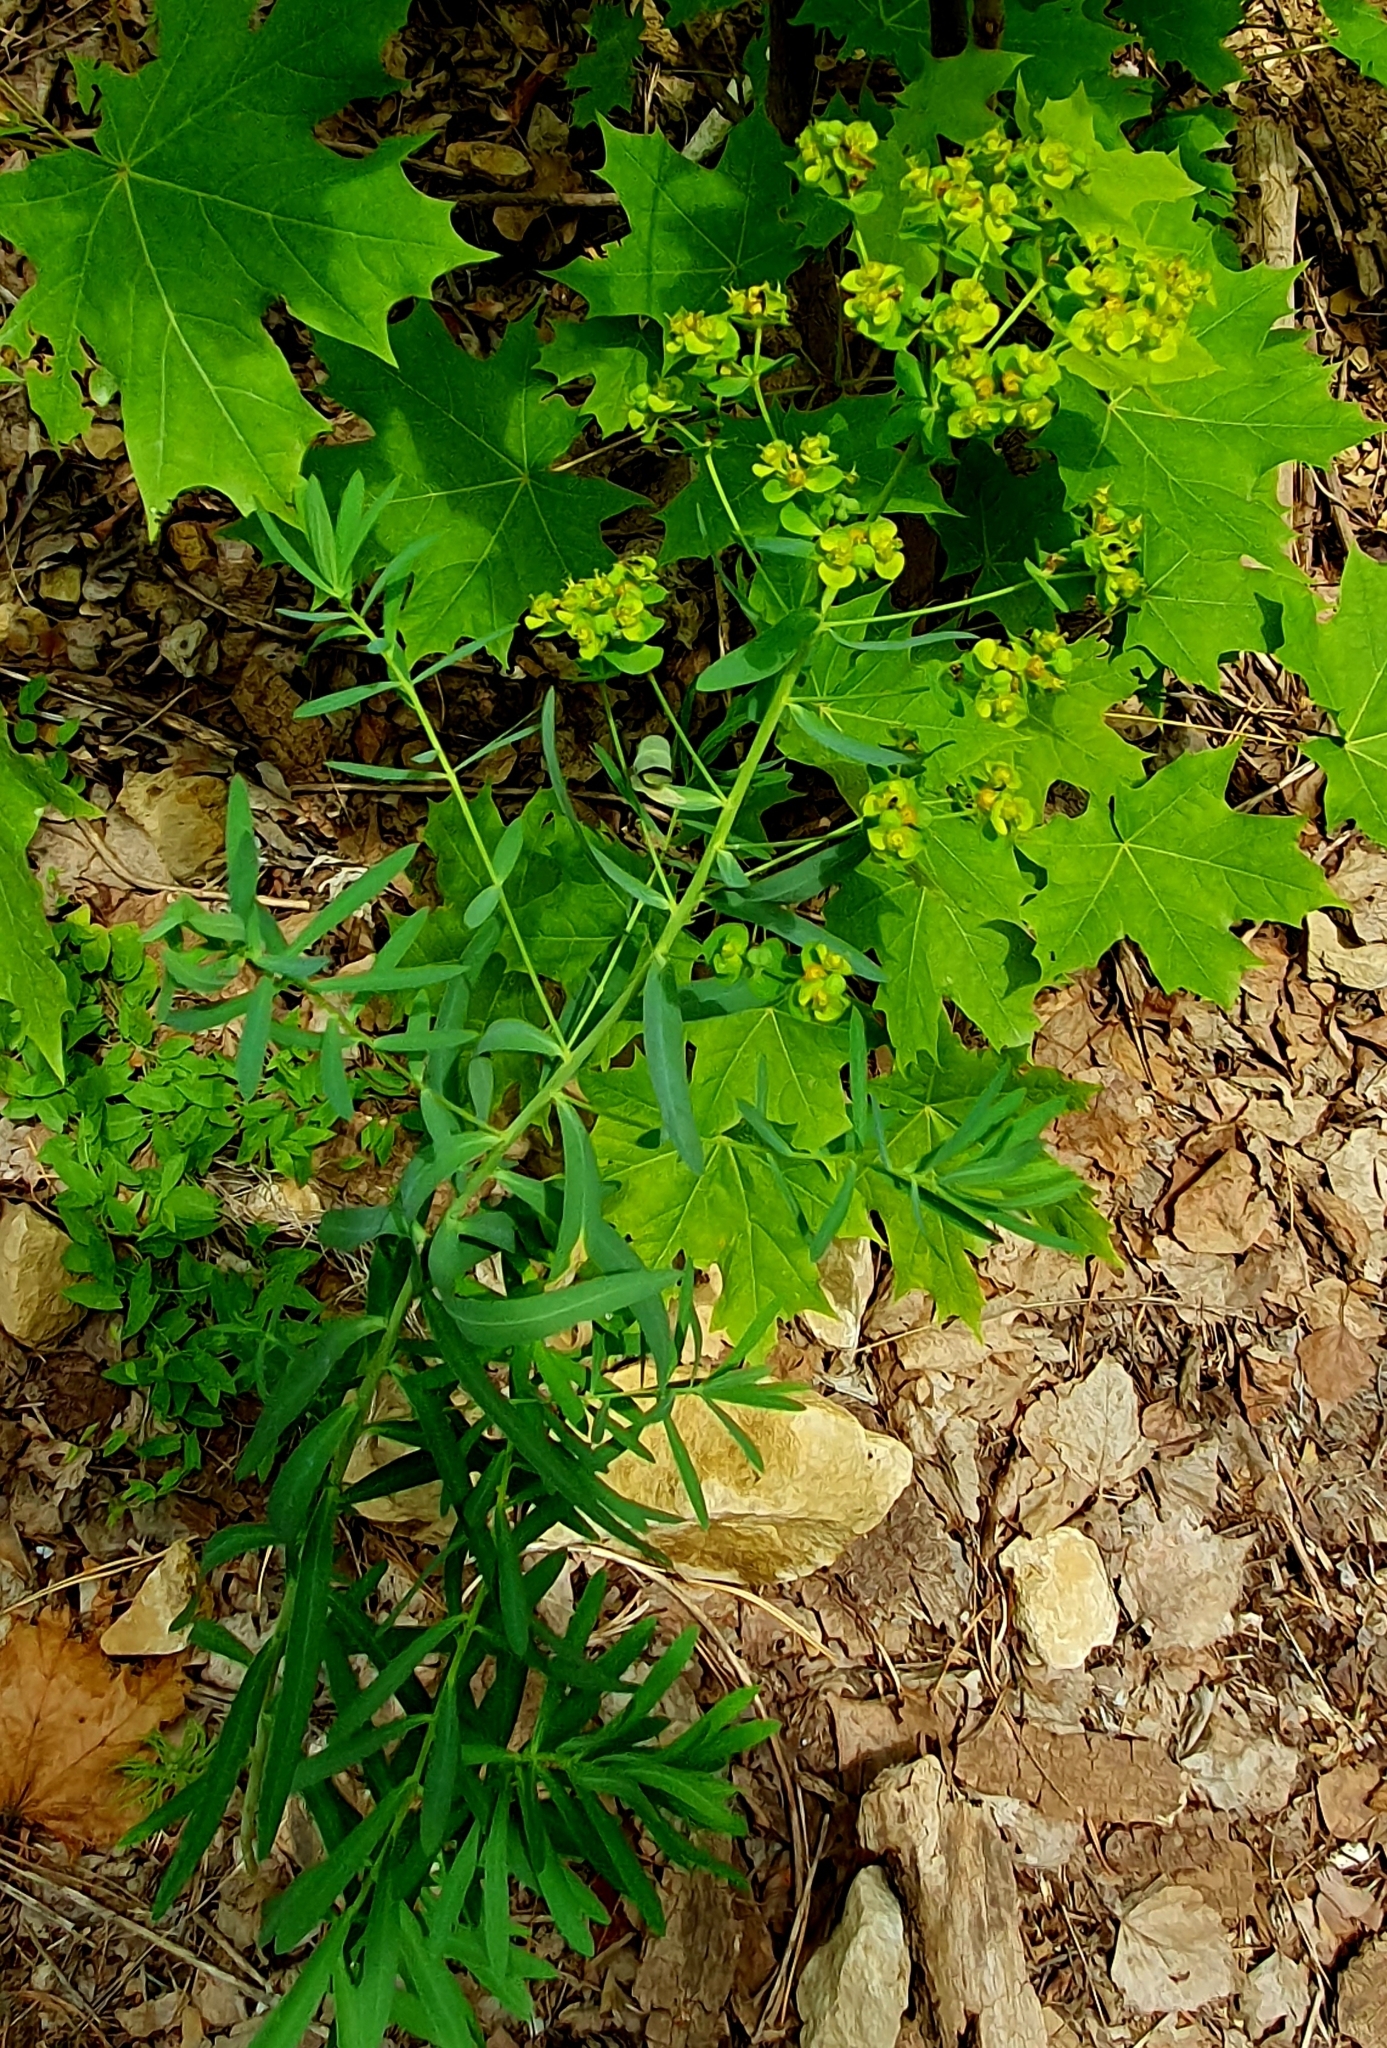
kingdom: Plantae
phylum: Tracheophyta
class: Magnoliopsida
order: Malpighiales
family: Euphorbiaceae
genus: Euphorbia
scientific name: Euphorbia virgata
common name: Leafy spurge
